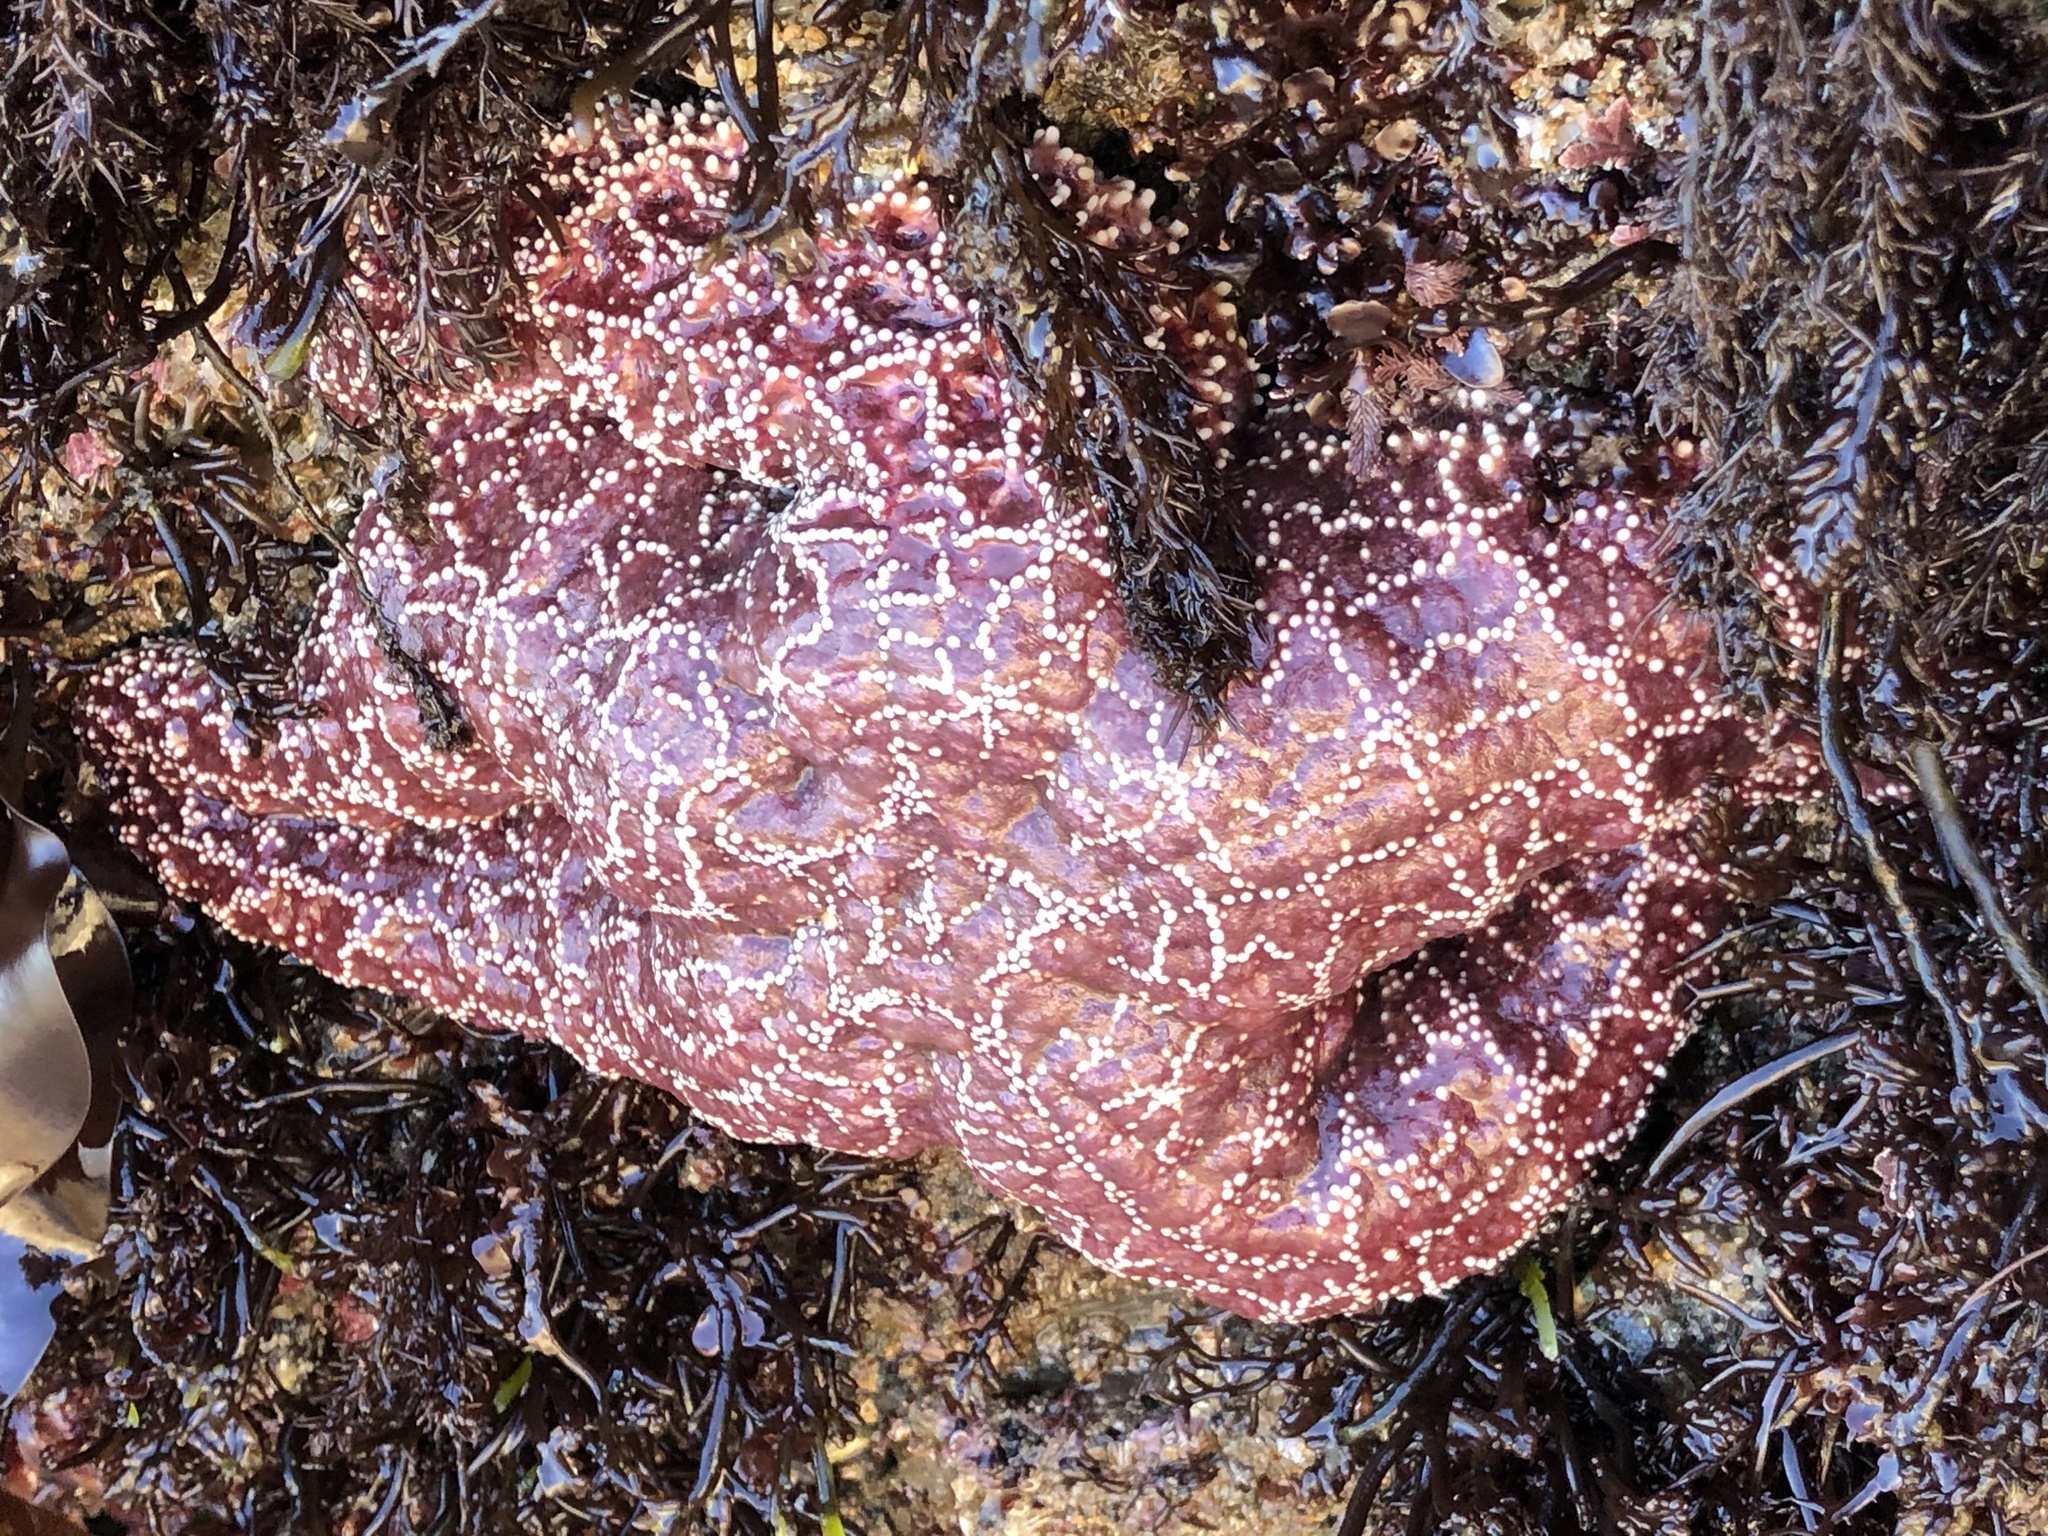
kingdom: Animalia
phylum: Echinodermata
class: Asteroidea
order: Forcipulatida
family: Asteriidae
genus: Pisaster
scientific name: Pisaster ochraceus
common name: Ochre stars
